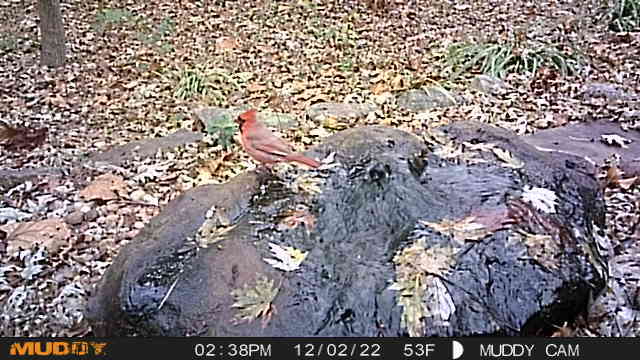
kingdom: Animalia
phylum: Chordata
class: Aves
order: Passeriformes
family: Cardinalidae
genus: Cardinalis
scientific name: Cardinalis cardinalis
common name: Northern cardinal
